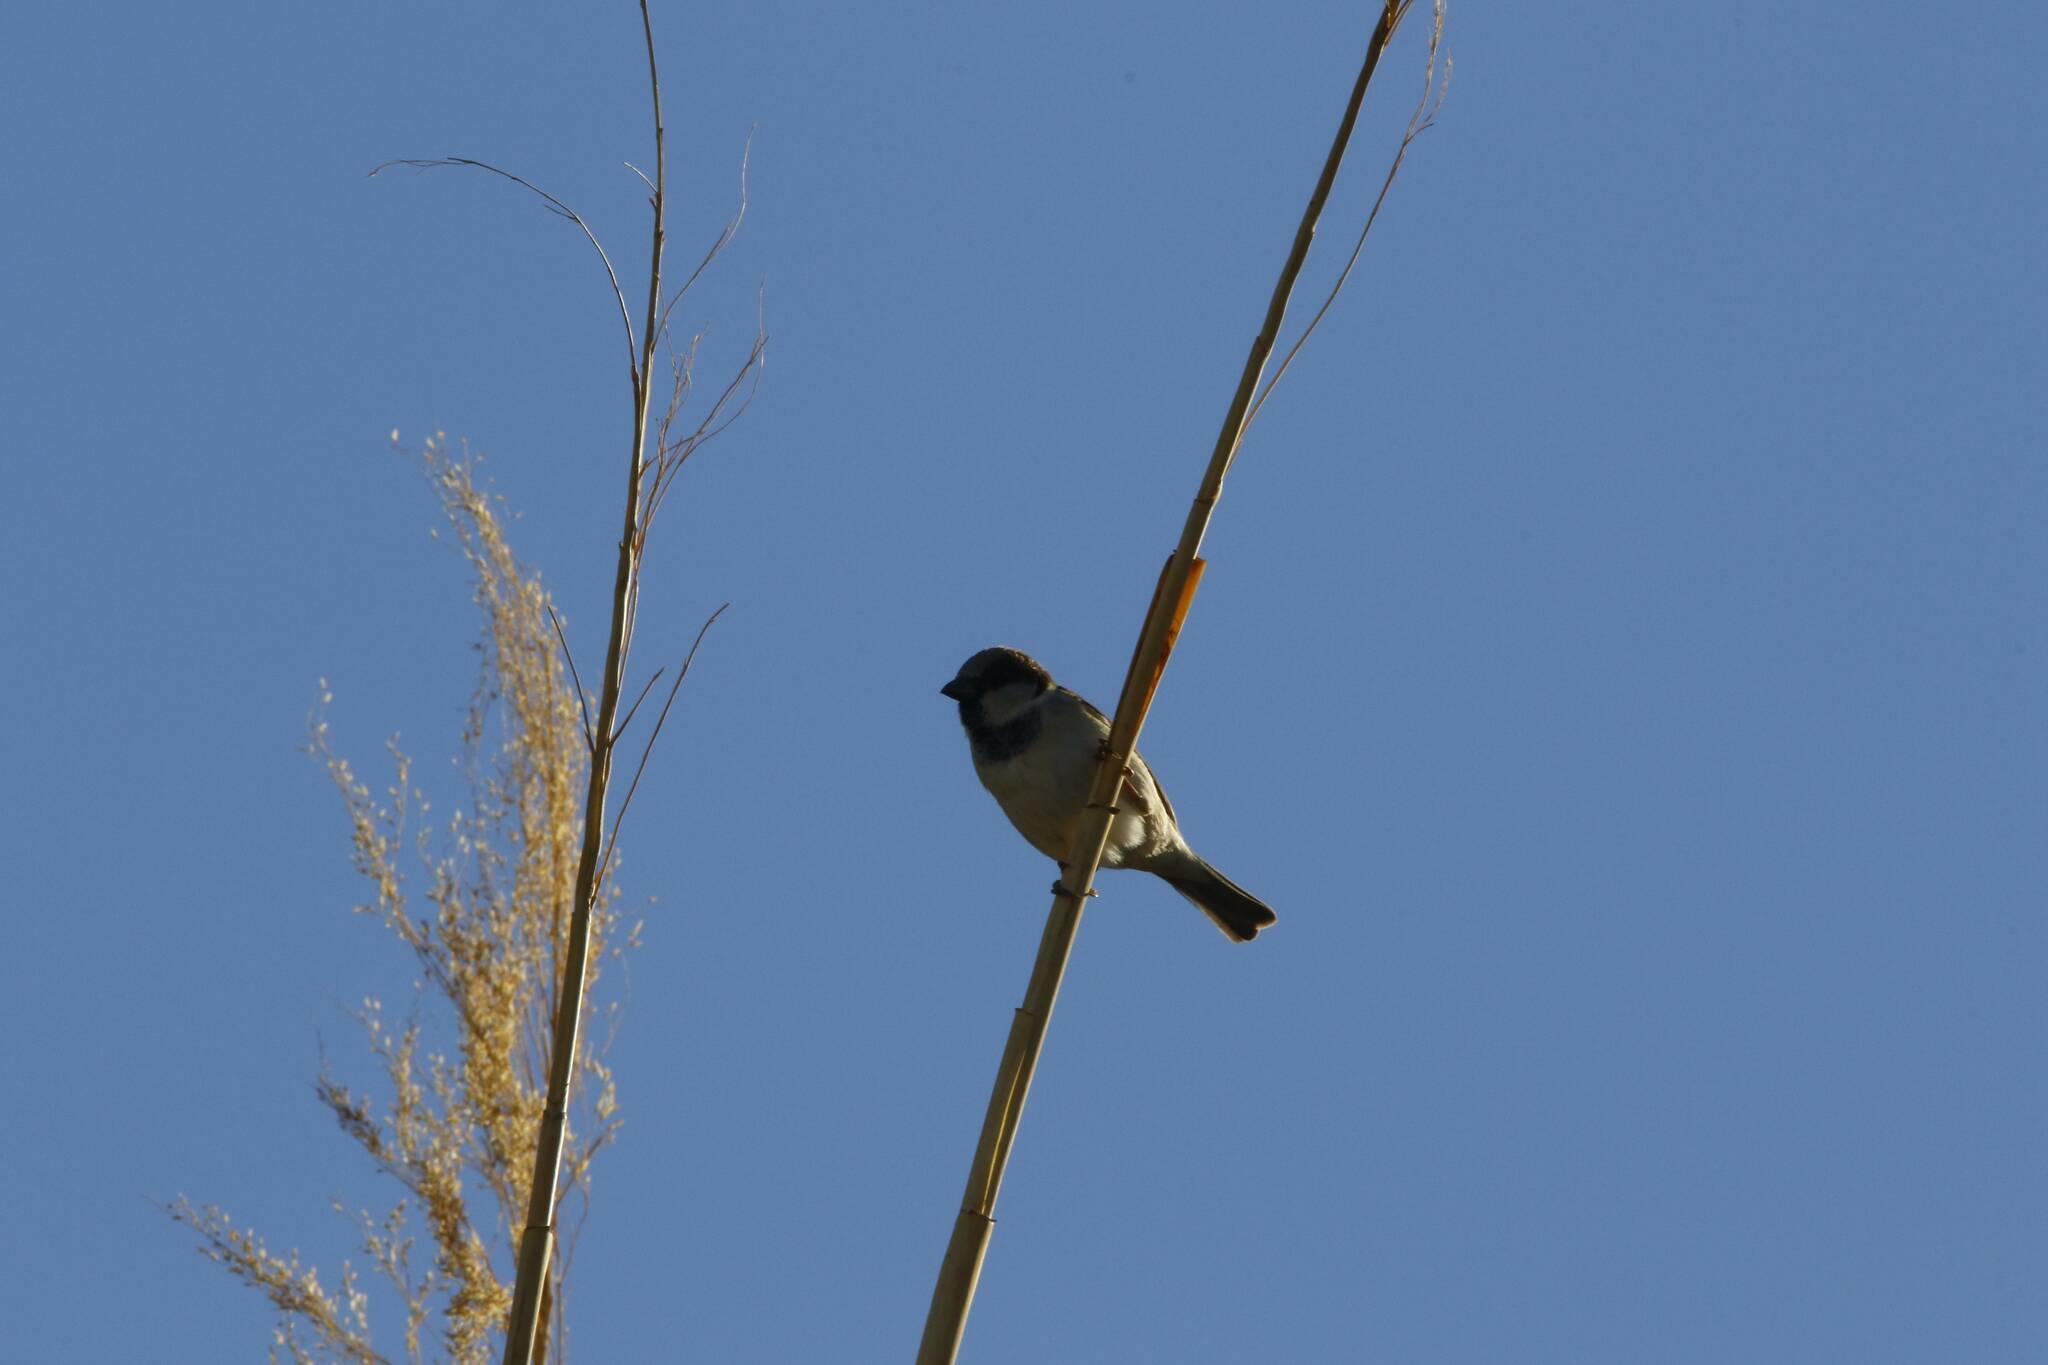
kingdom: Animalia
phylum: Chordata
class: Aves
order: Passeriformes
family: Passeridae
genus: Passer
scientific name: Passer domesticus
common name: House sparrow
